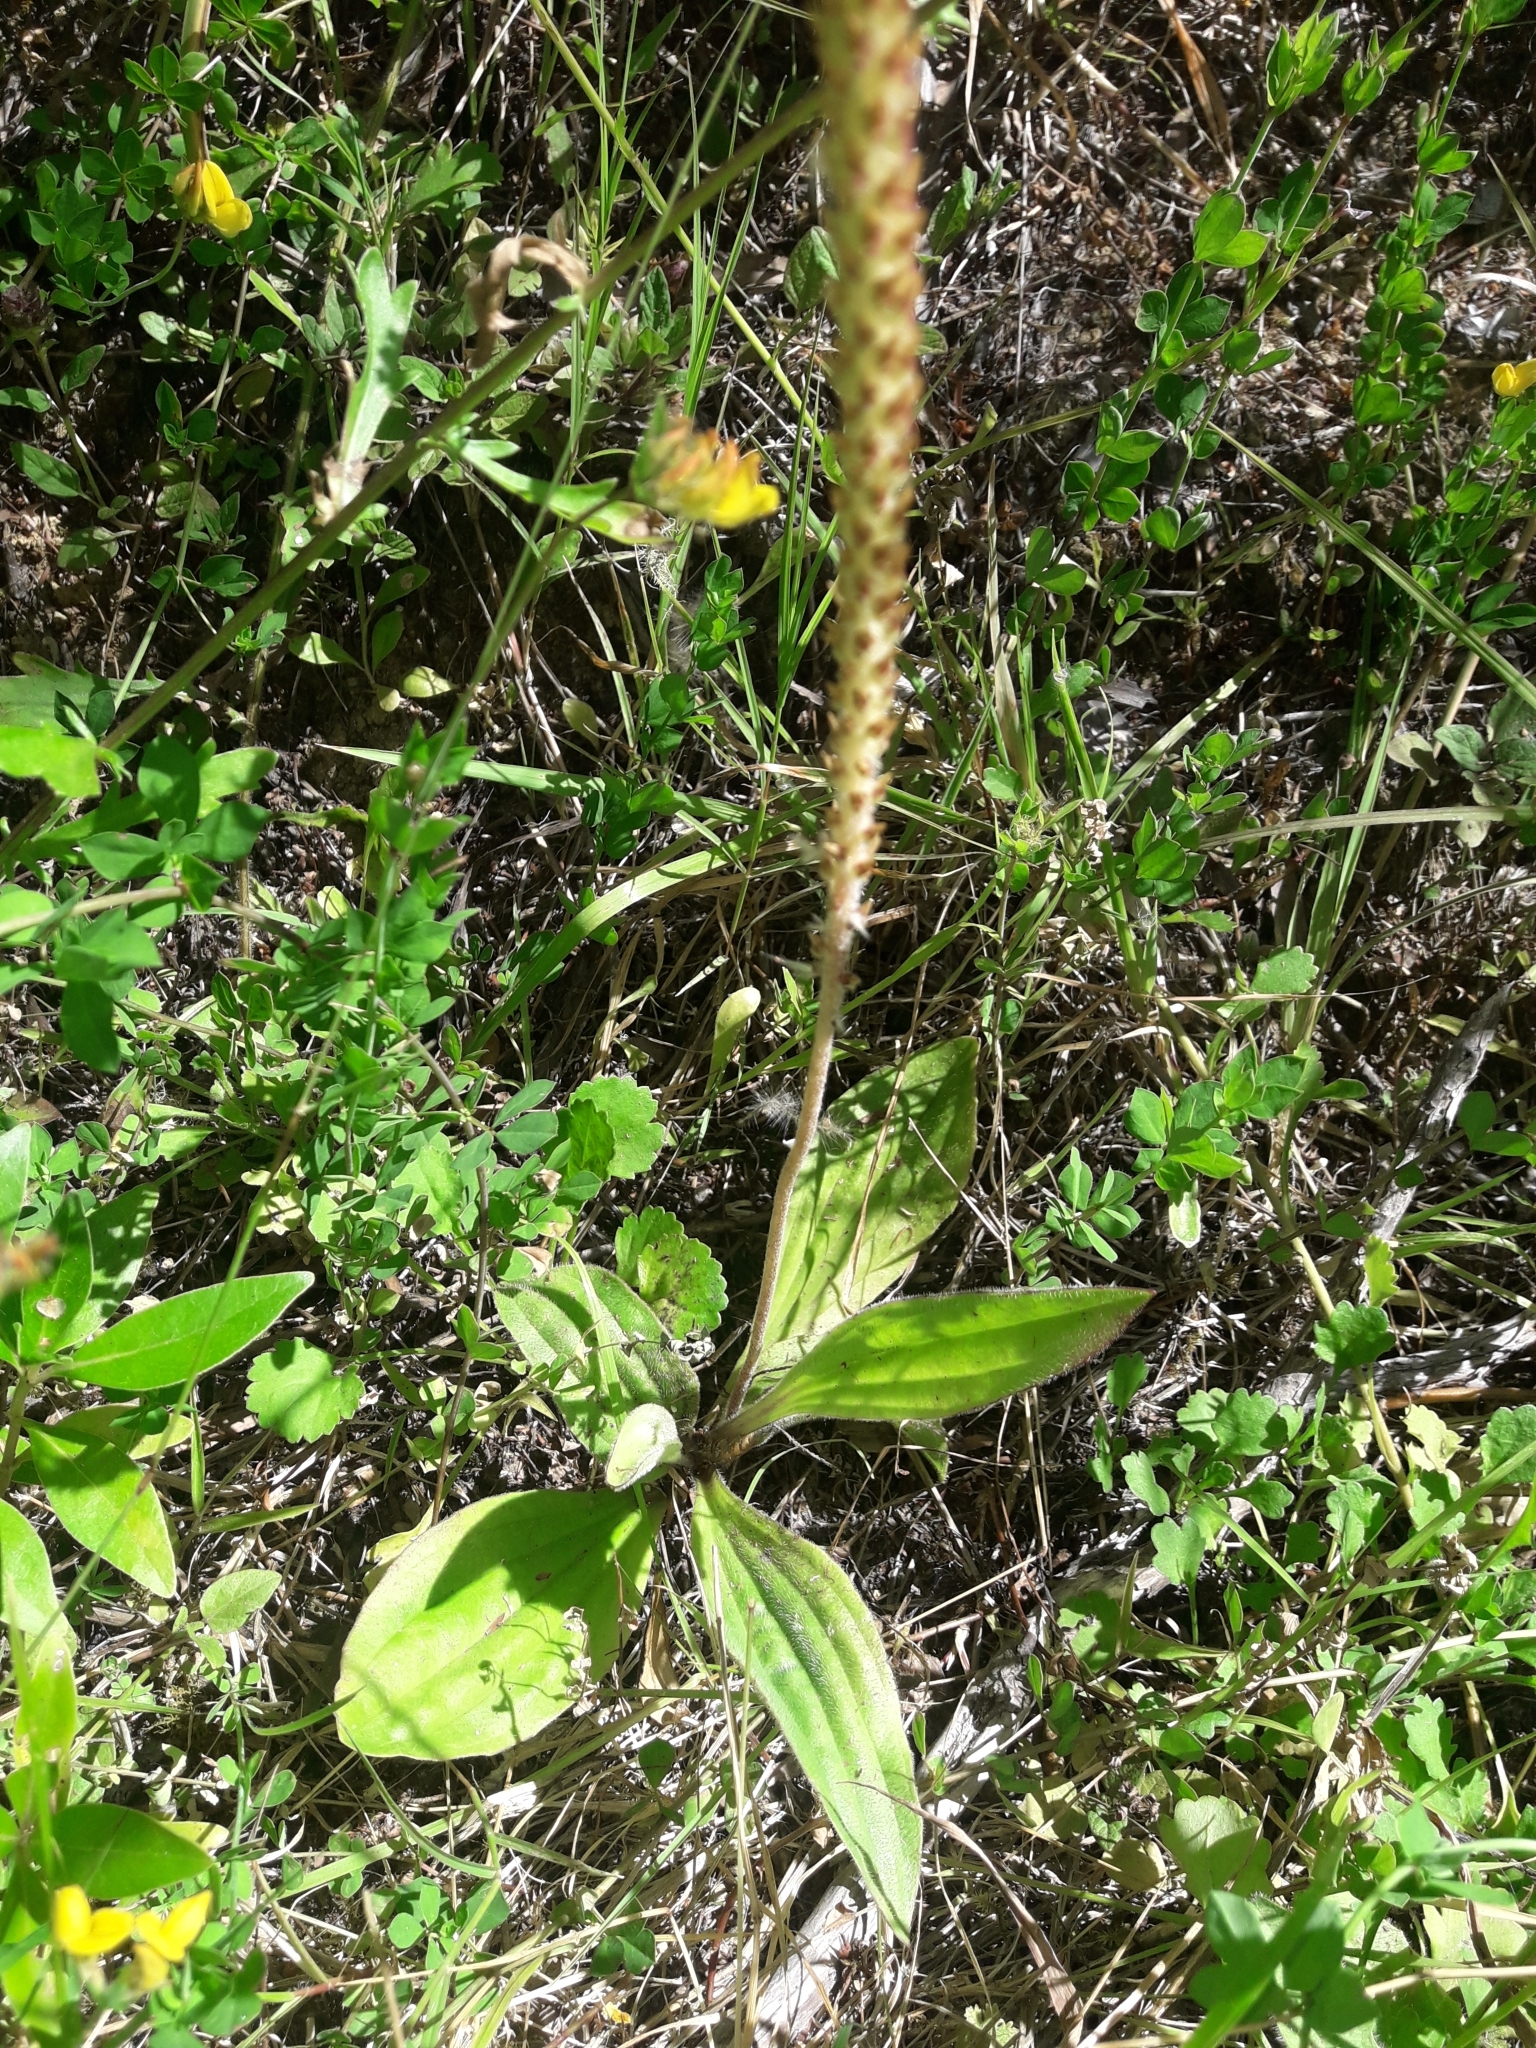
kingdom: Plantae
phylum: Tracheophyta
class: Magnoliopsida
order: Lamiales
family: Plantaginaceae
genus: Plantago
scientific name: Plantago australis
